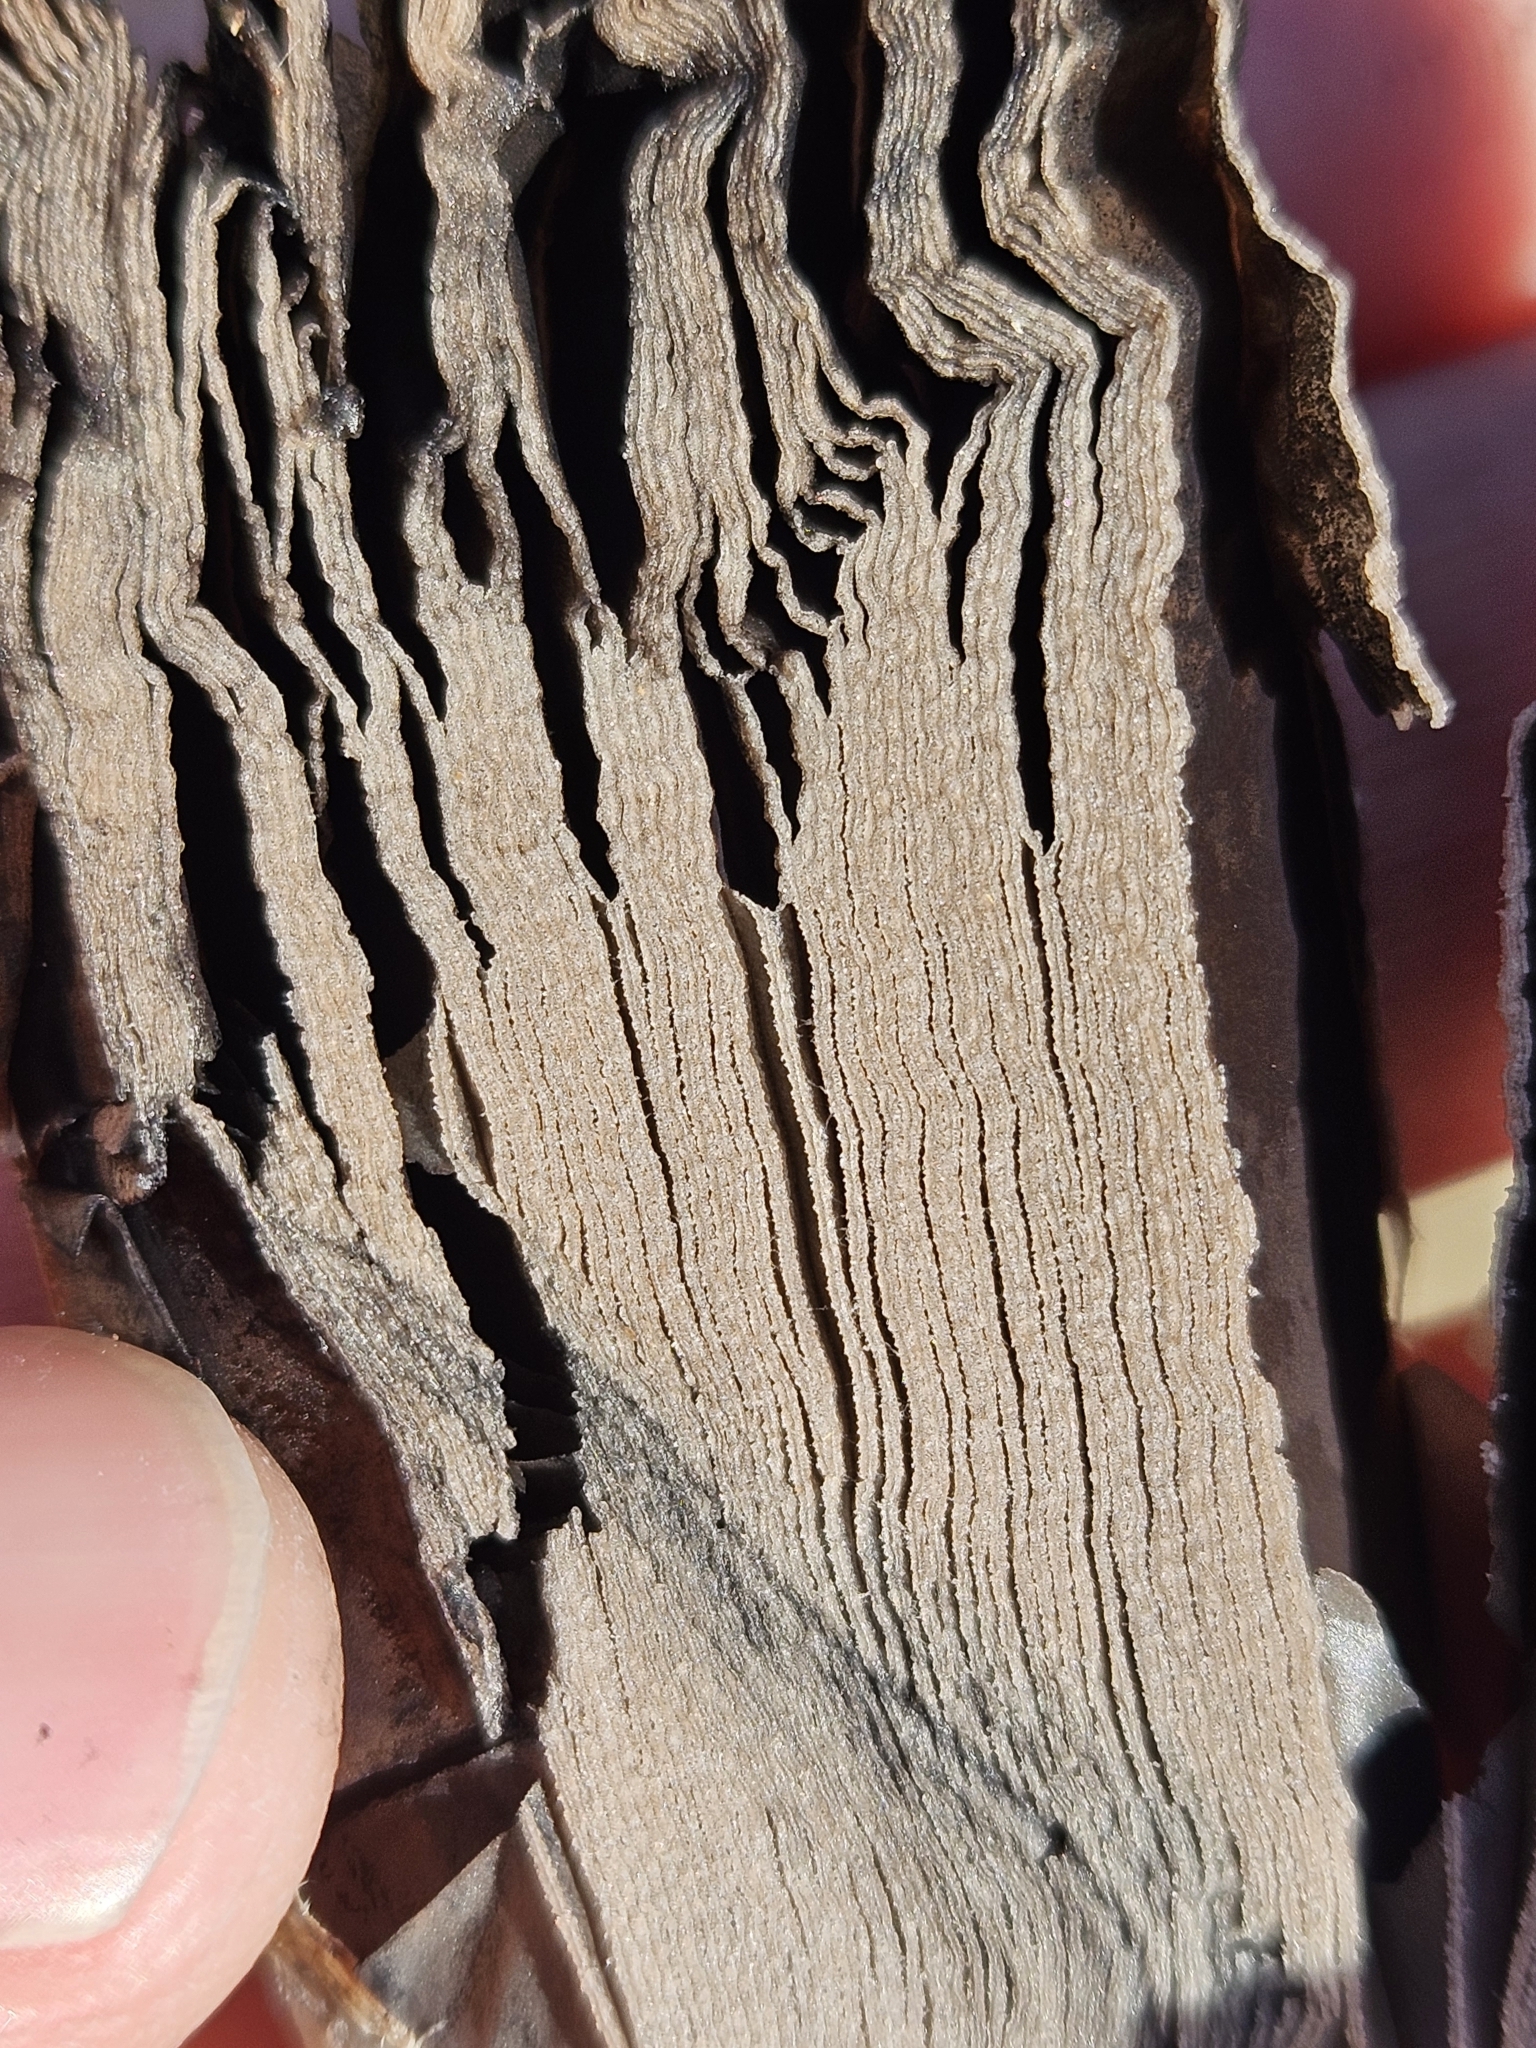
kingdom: Fungi
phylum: Basidiomycota
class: Agaricomycetes
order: Agaricales
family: Agaricaceae
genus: Coprinus
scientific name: Coprinus comatus
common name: Lawyer's wig
